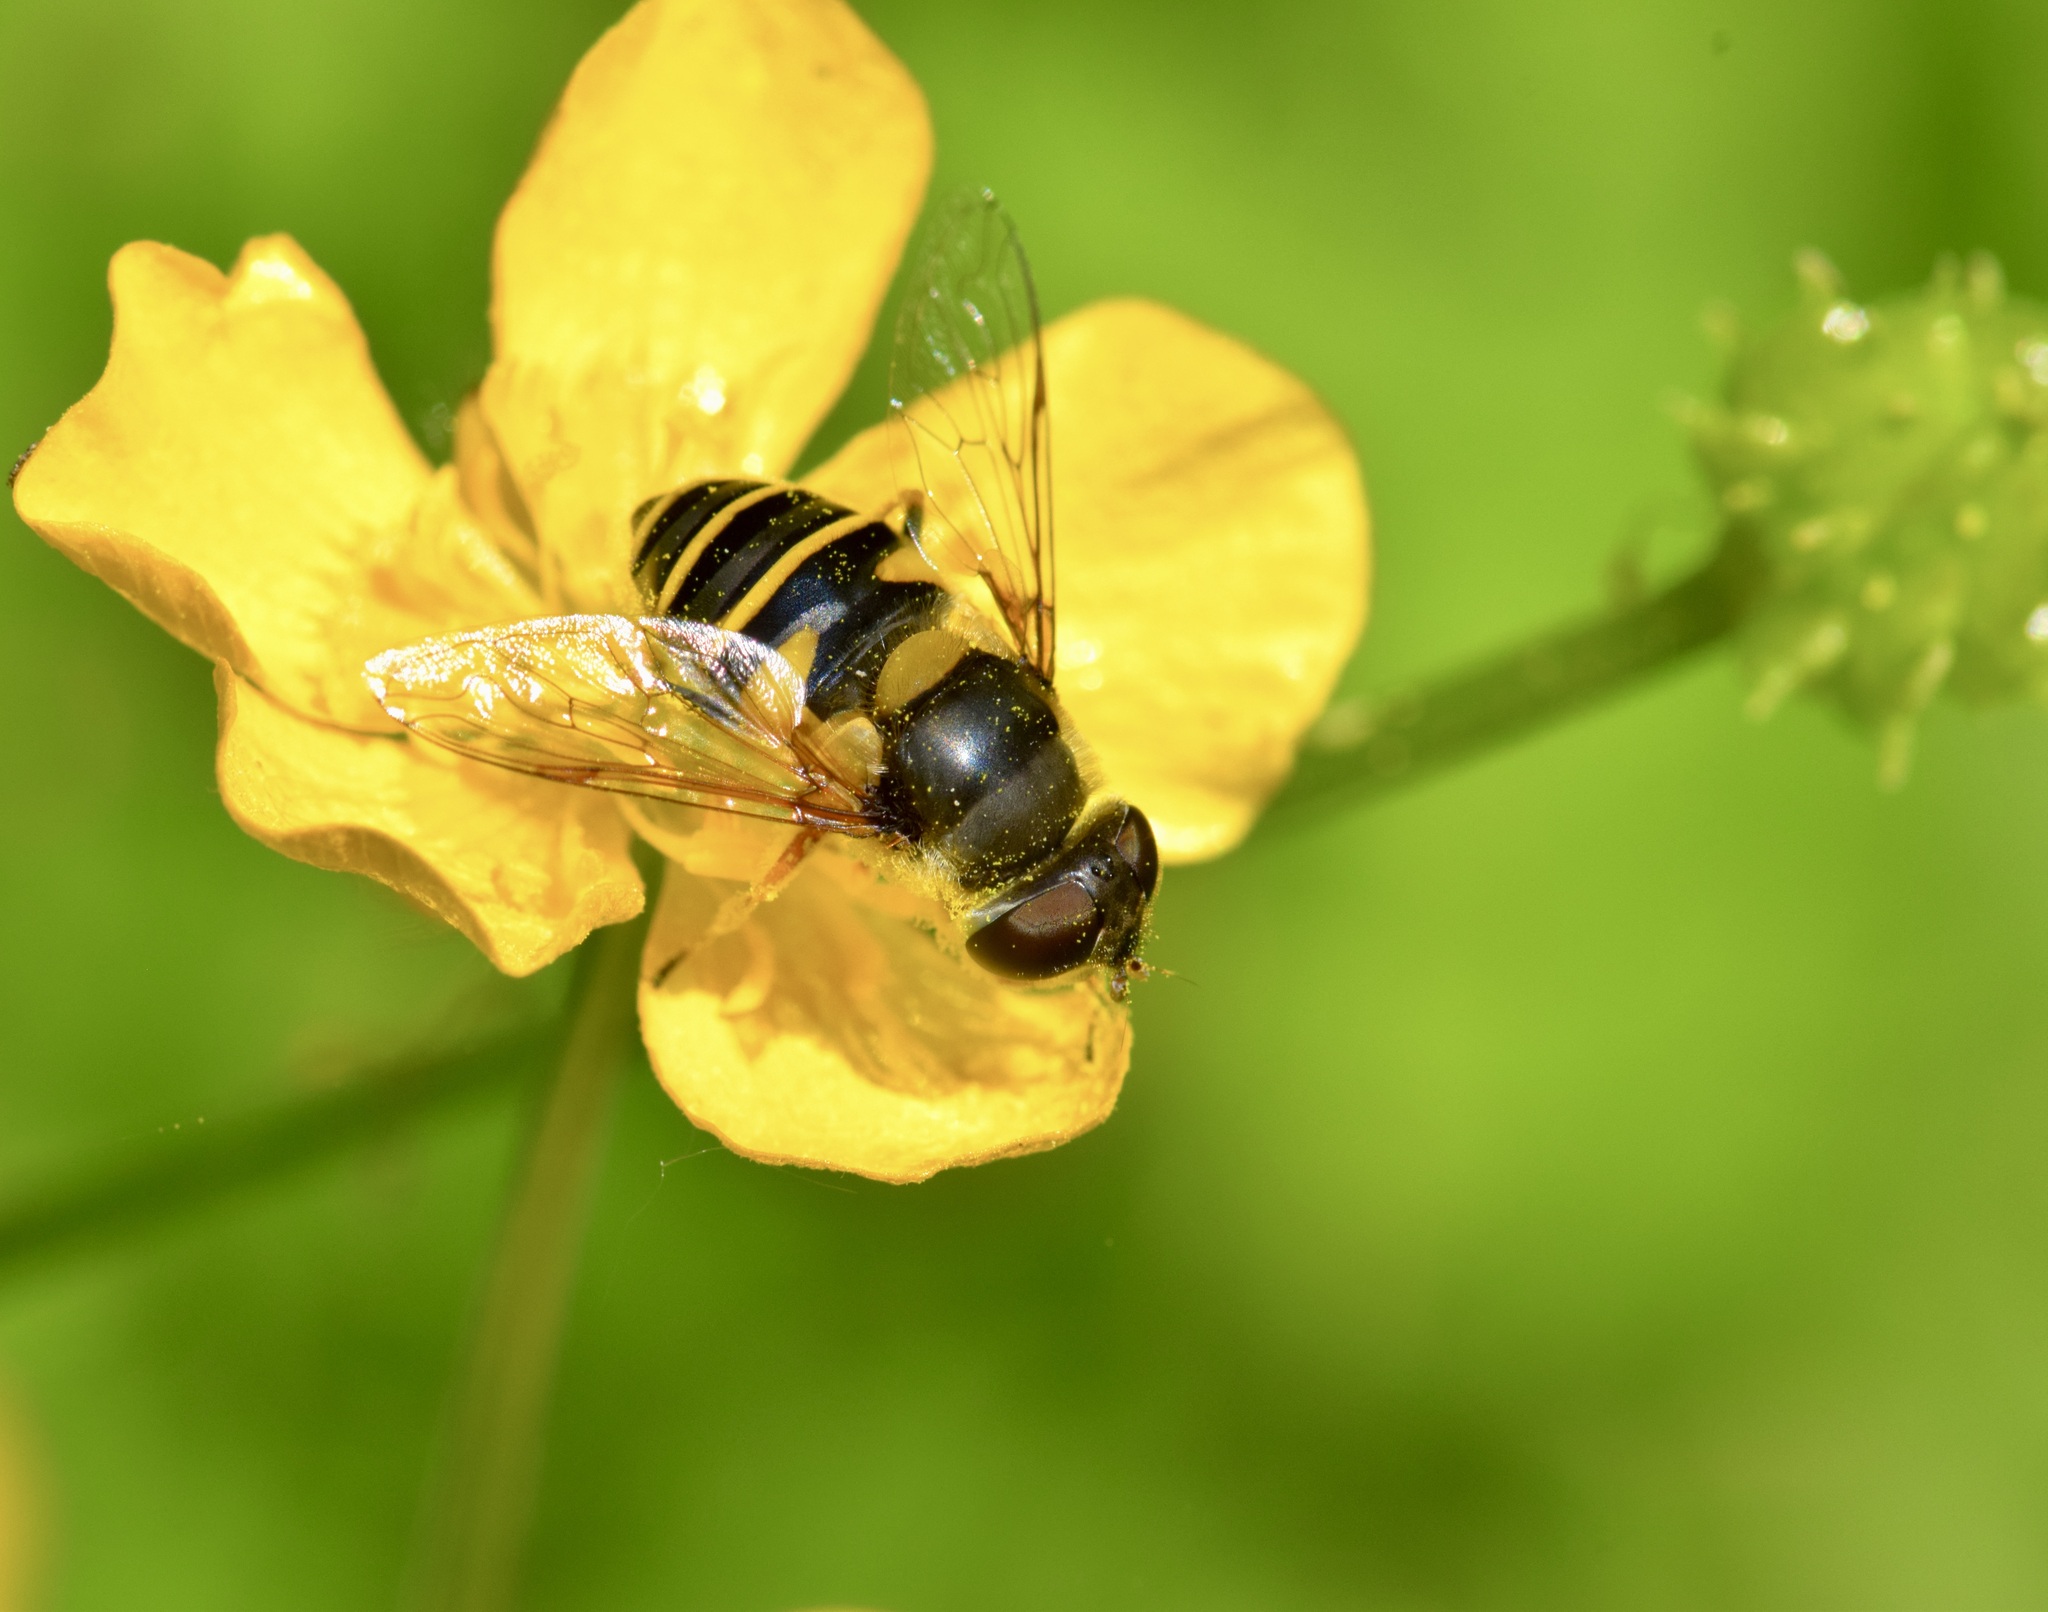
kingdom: Animalia
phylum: Arthropoda
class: Insecta
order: Diptera
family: Syrphidae
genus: Eristalis
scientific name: Eristalis transversa
